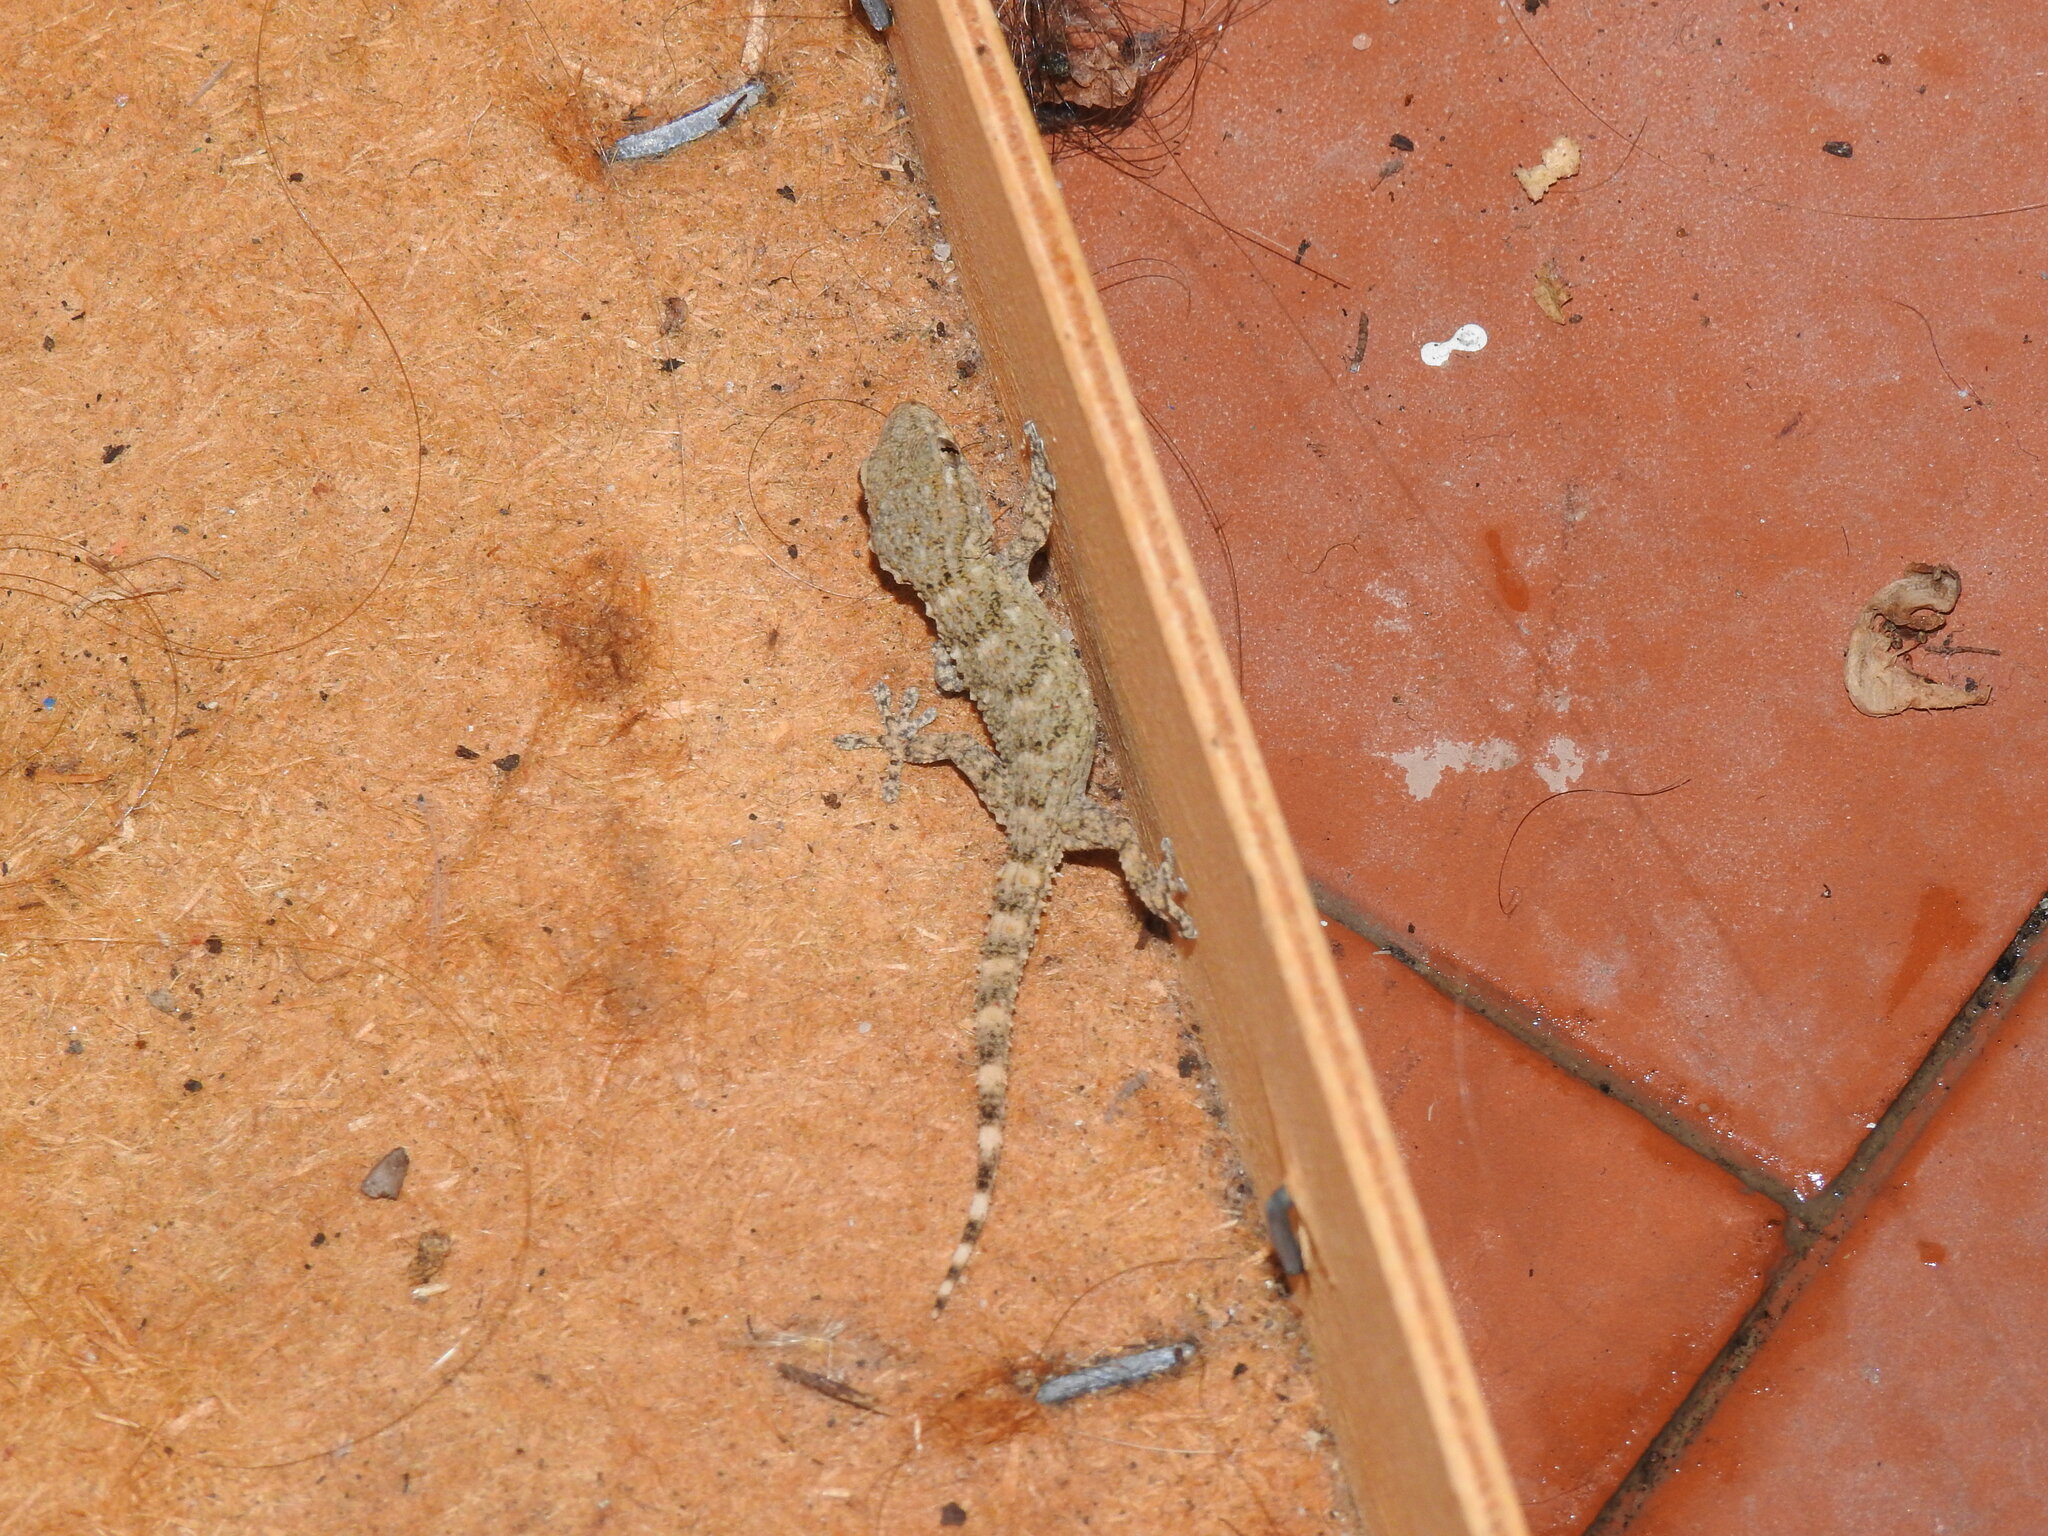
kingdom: Animalia
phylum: Chordata
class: Squamata
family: Phyllodactylidae
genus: Tarentola
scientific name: Tarentola mauritanica
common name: Moorish gecko
